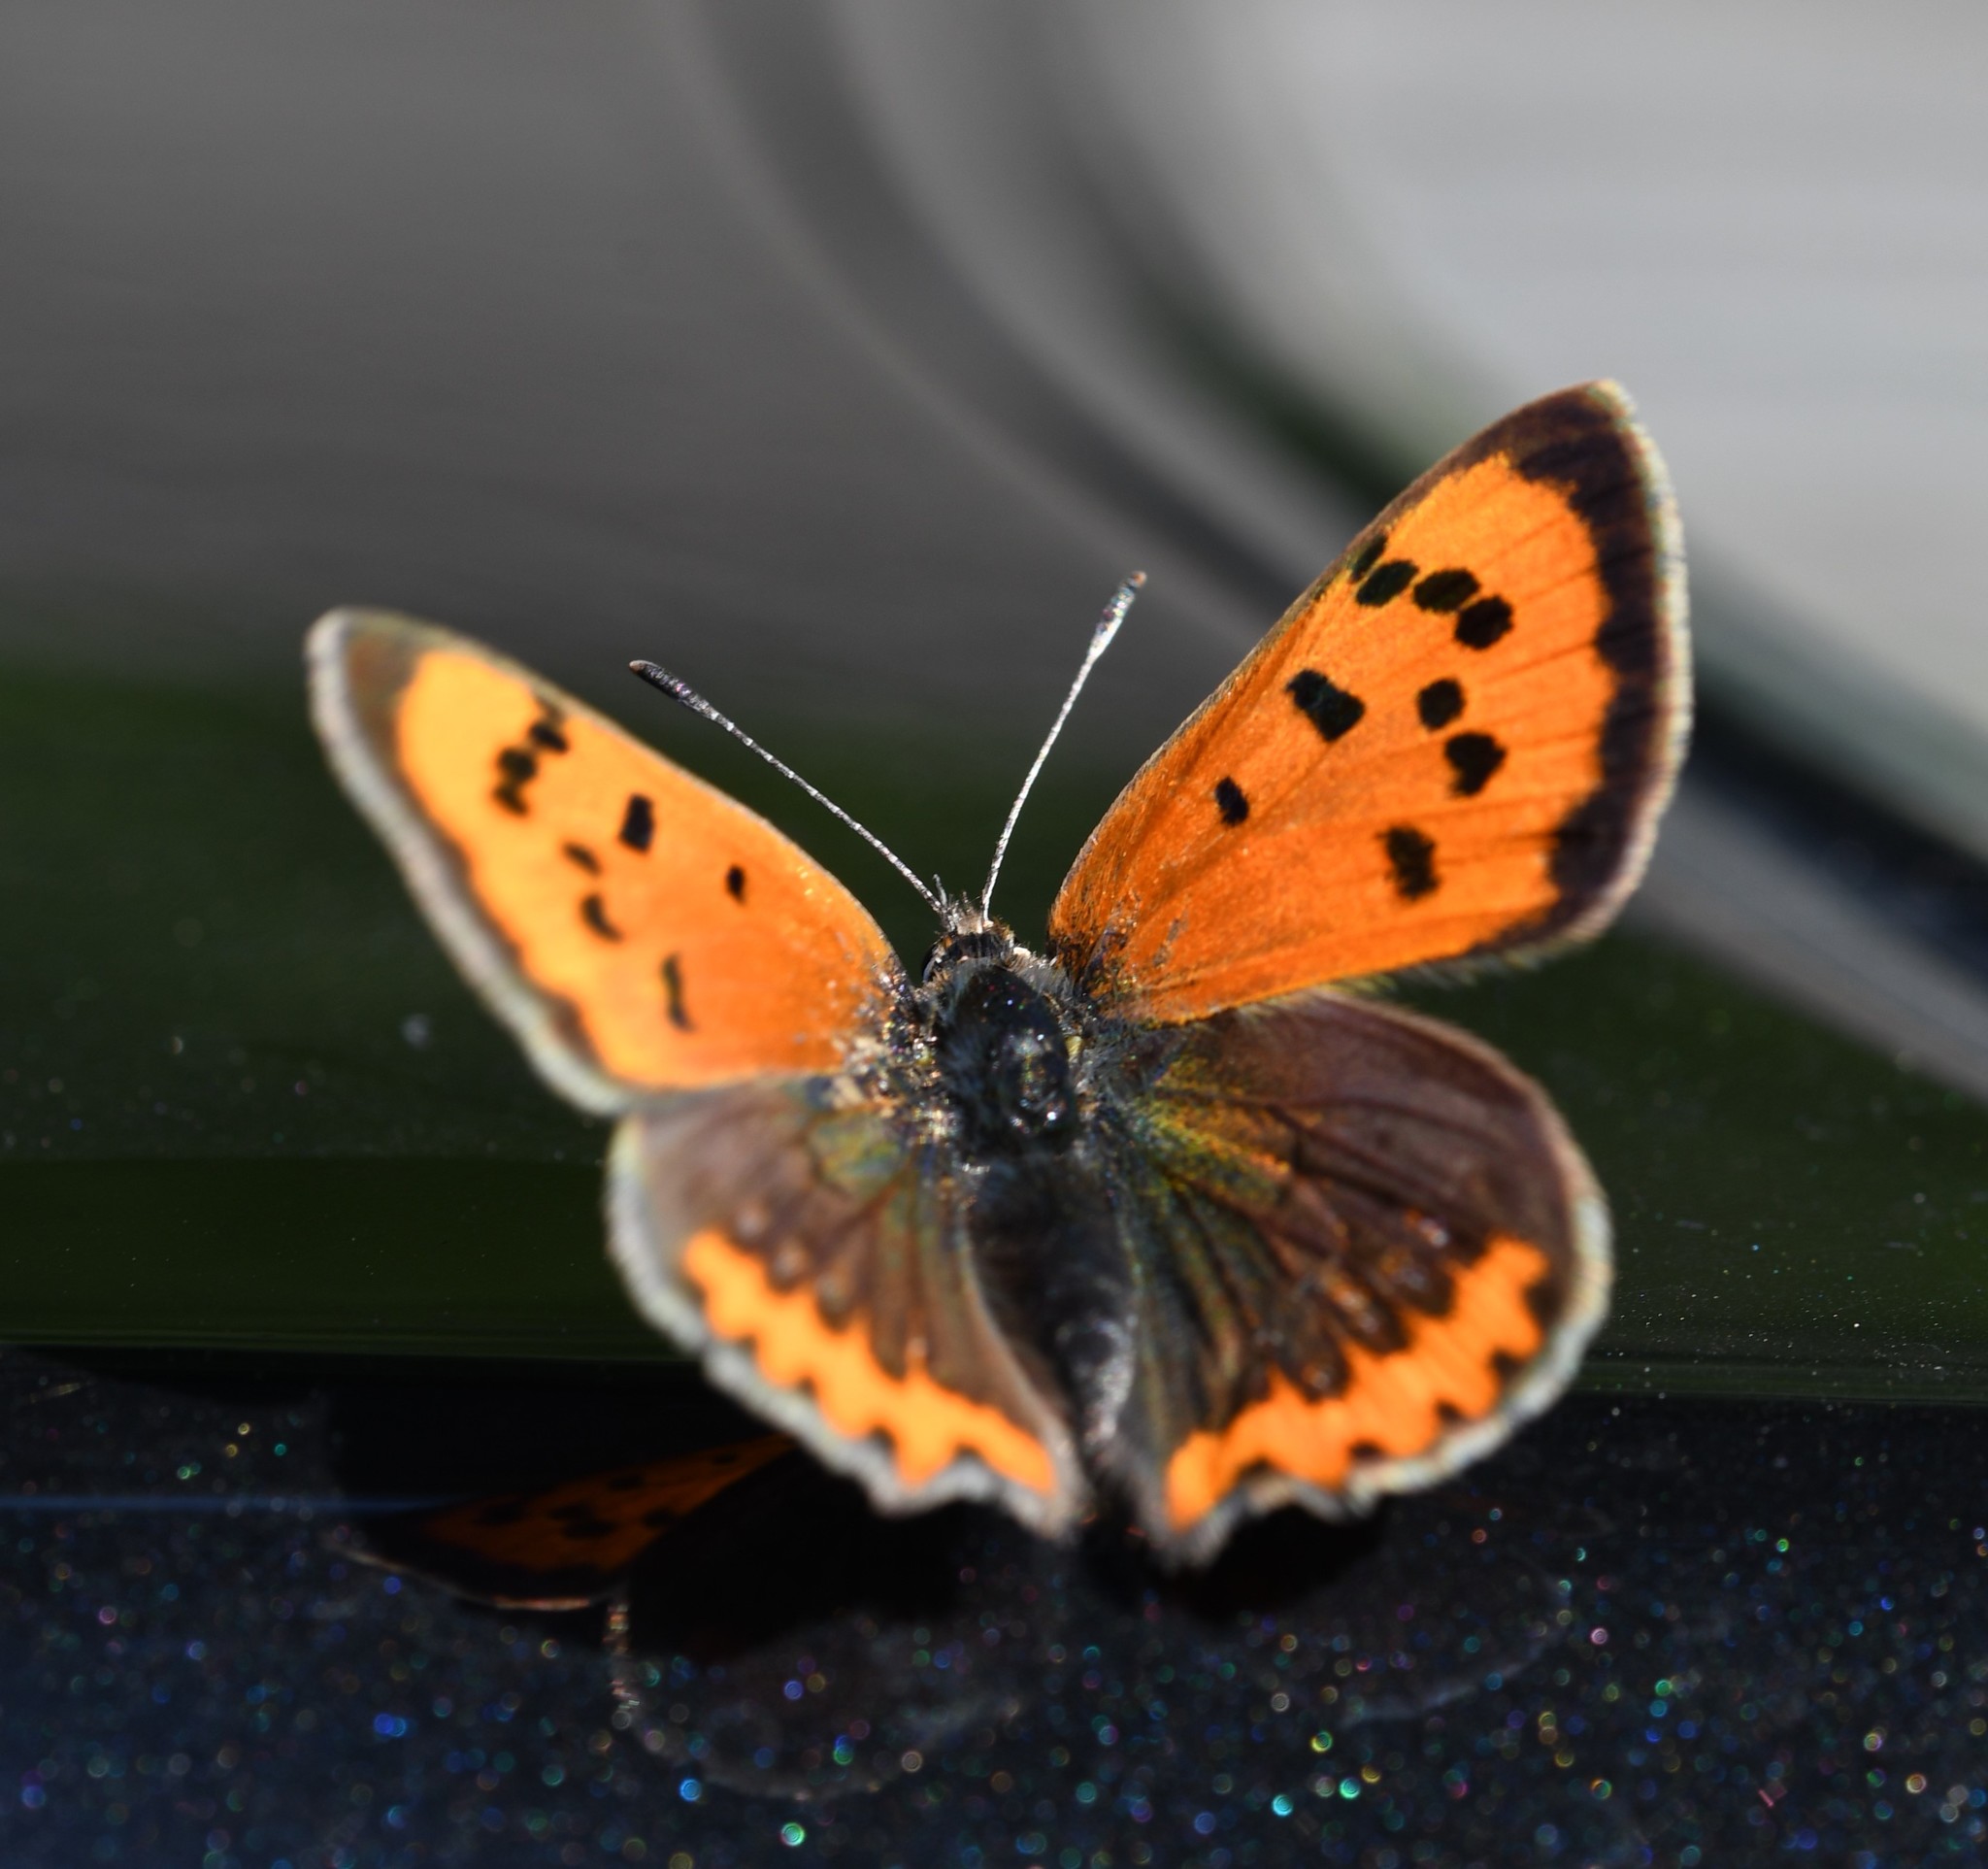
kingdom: Animalia
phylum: Arthropoda
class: Insecta
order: Lepidoptera
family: Lycaenidae
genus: Lycaena
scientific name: Lycaena phlaeas
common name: Small copper
